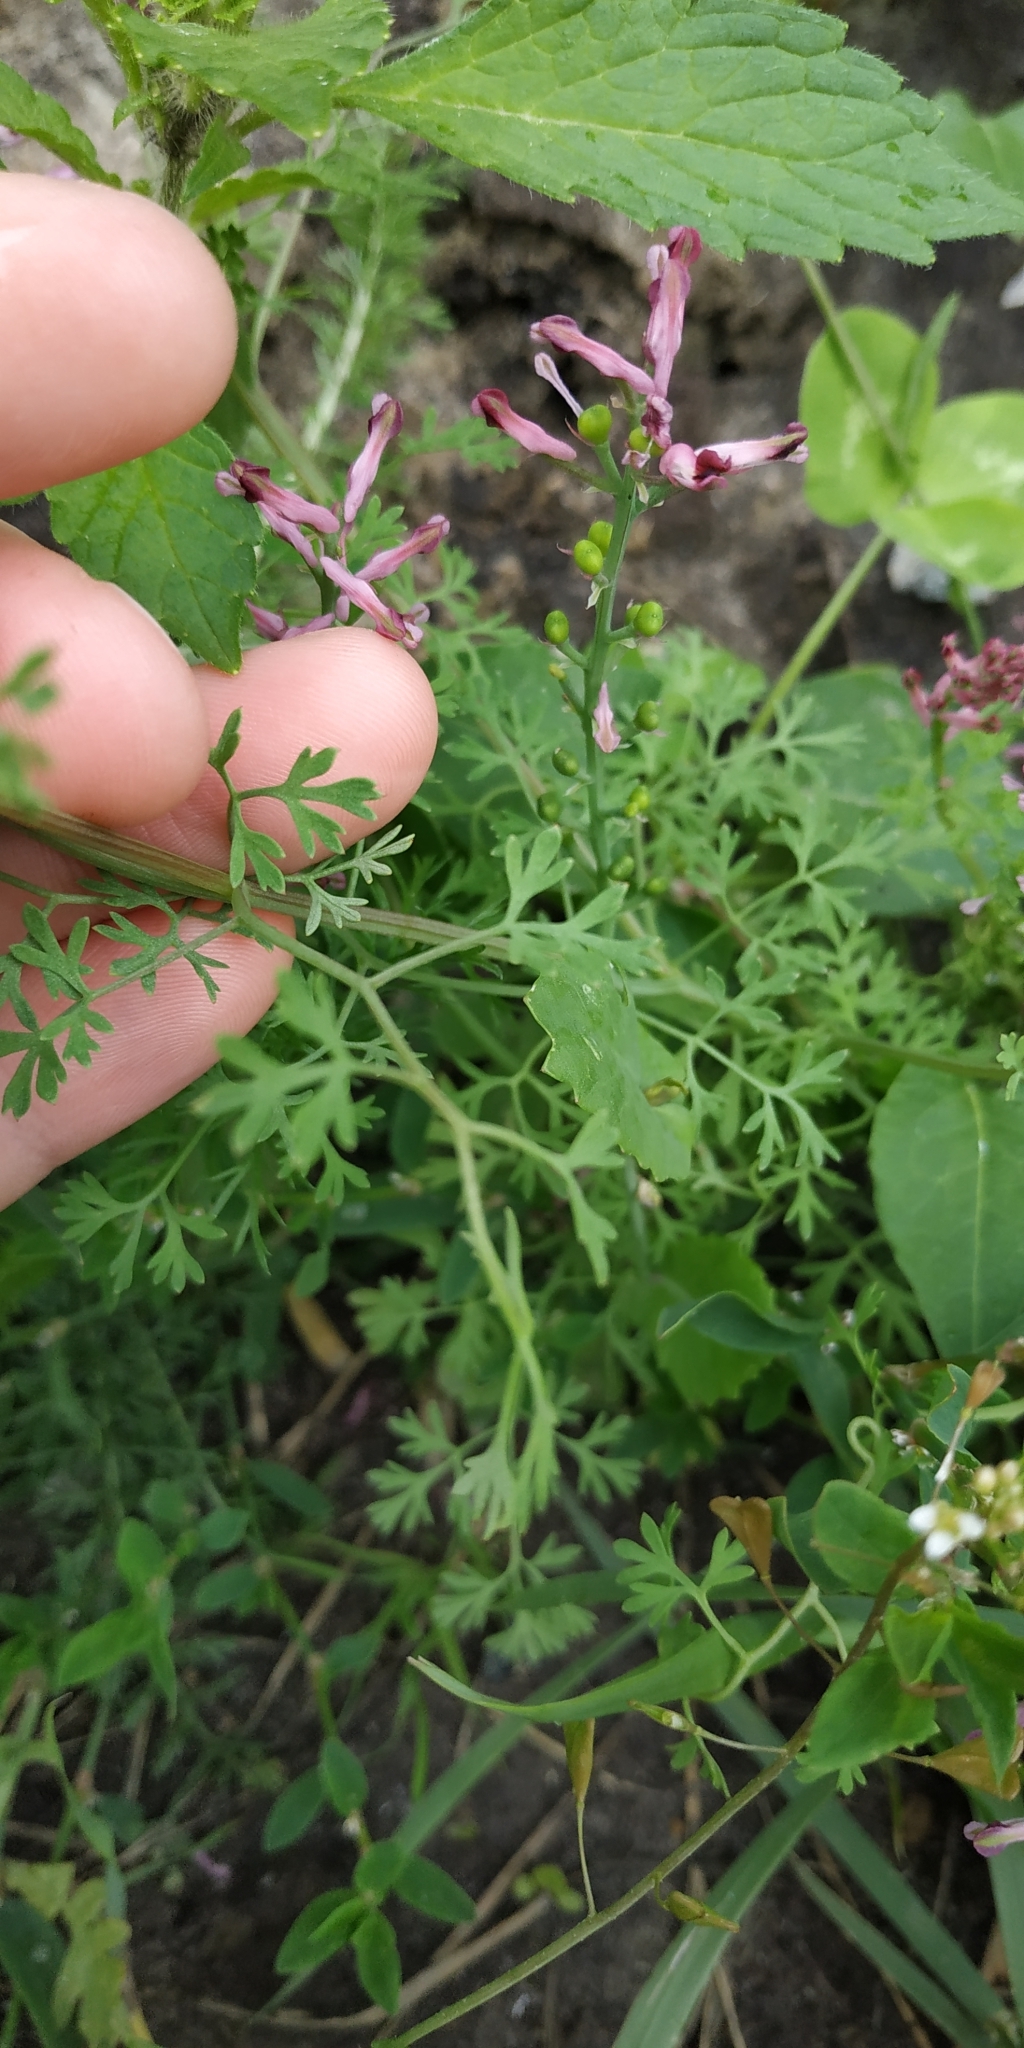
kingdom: Plantae
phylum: Tracheophyta
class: Magnoliopsida
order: Ranunculales
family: Papaveraceae
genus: Fumaria
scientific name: Fumaria officinalis
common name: Common fumitory
